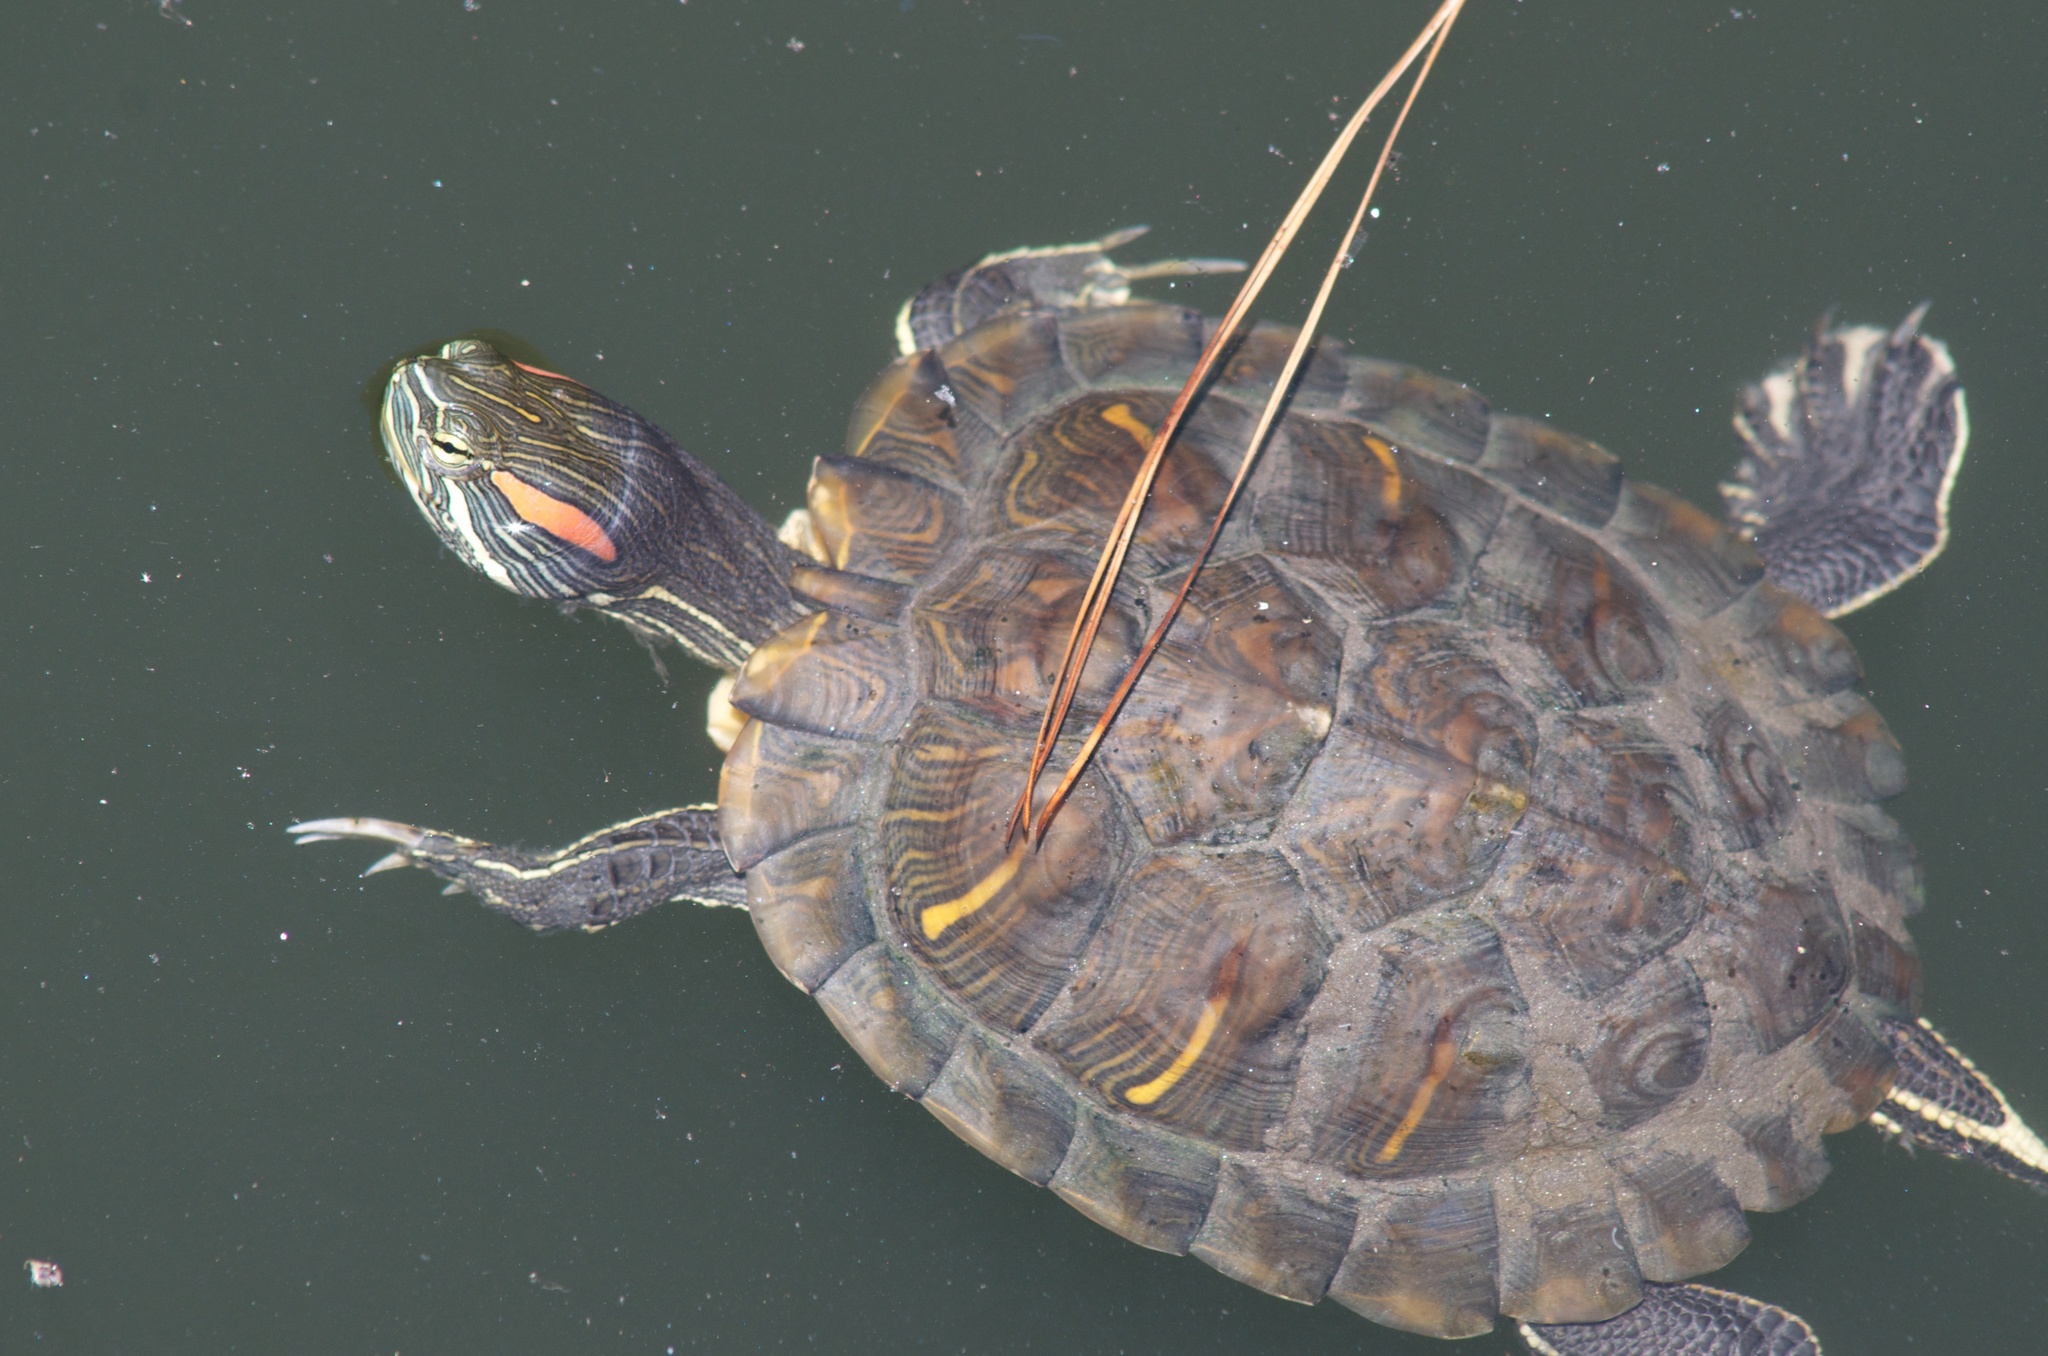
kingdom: Animalia
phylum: Chordata
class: Testudines
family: Emydidae
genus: Trachemys
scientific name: Trachemys scripta
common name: Slider
